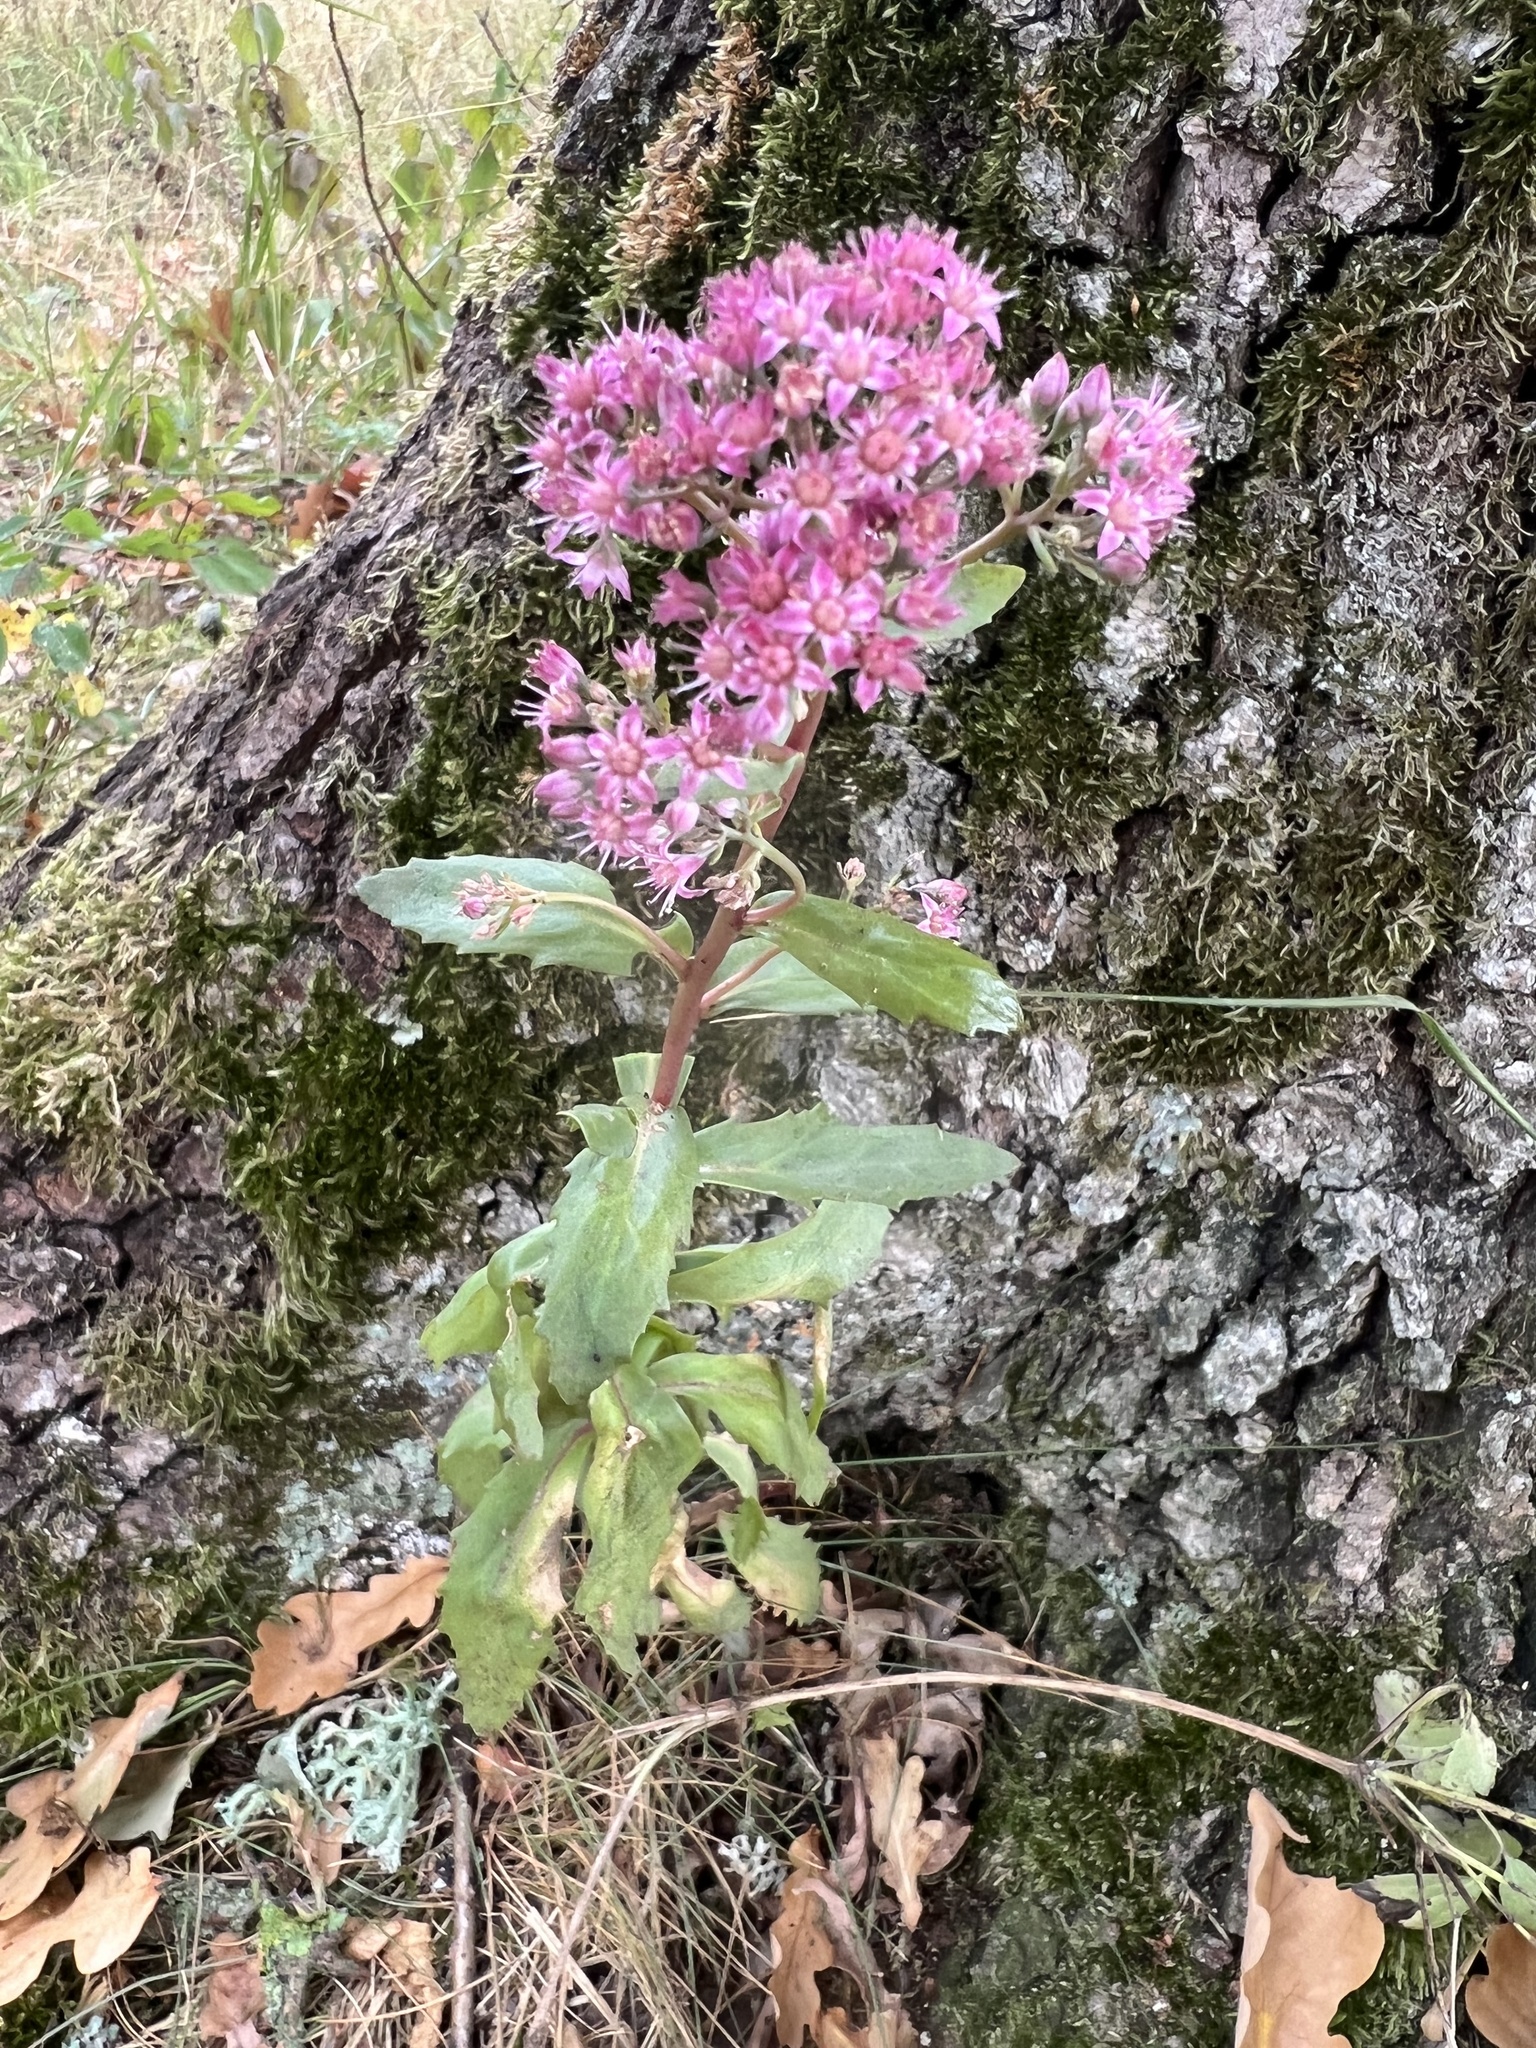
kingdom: Plantae
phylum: Tracheophyta
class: Magnoliopsida
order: Saxifragales
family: Crassulaceae
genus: Hylotelephium
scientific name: Hylotelephium telephium
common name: Live-forever
